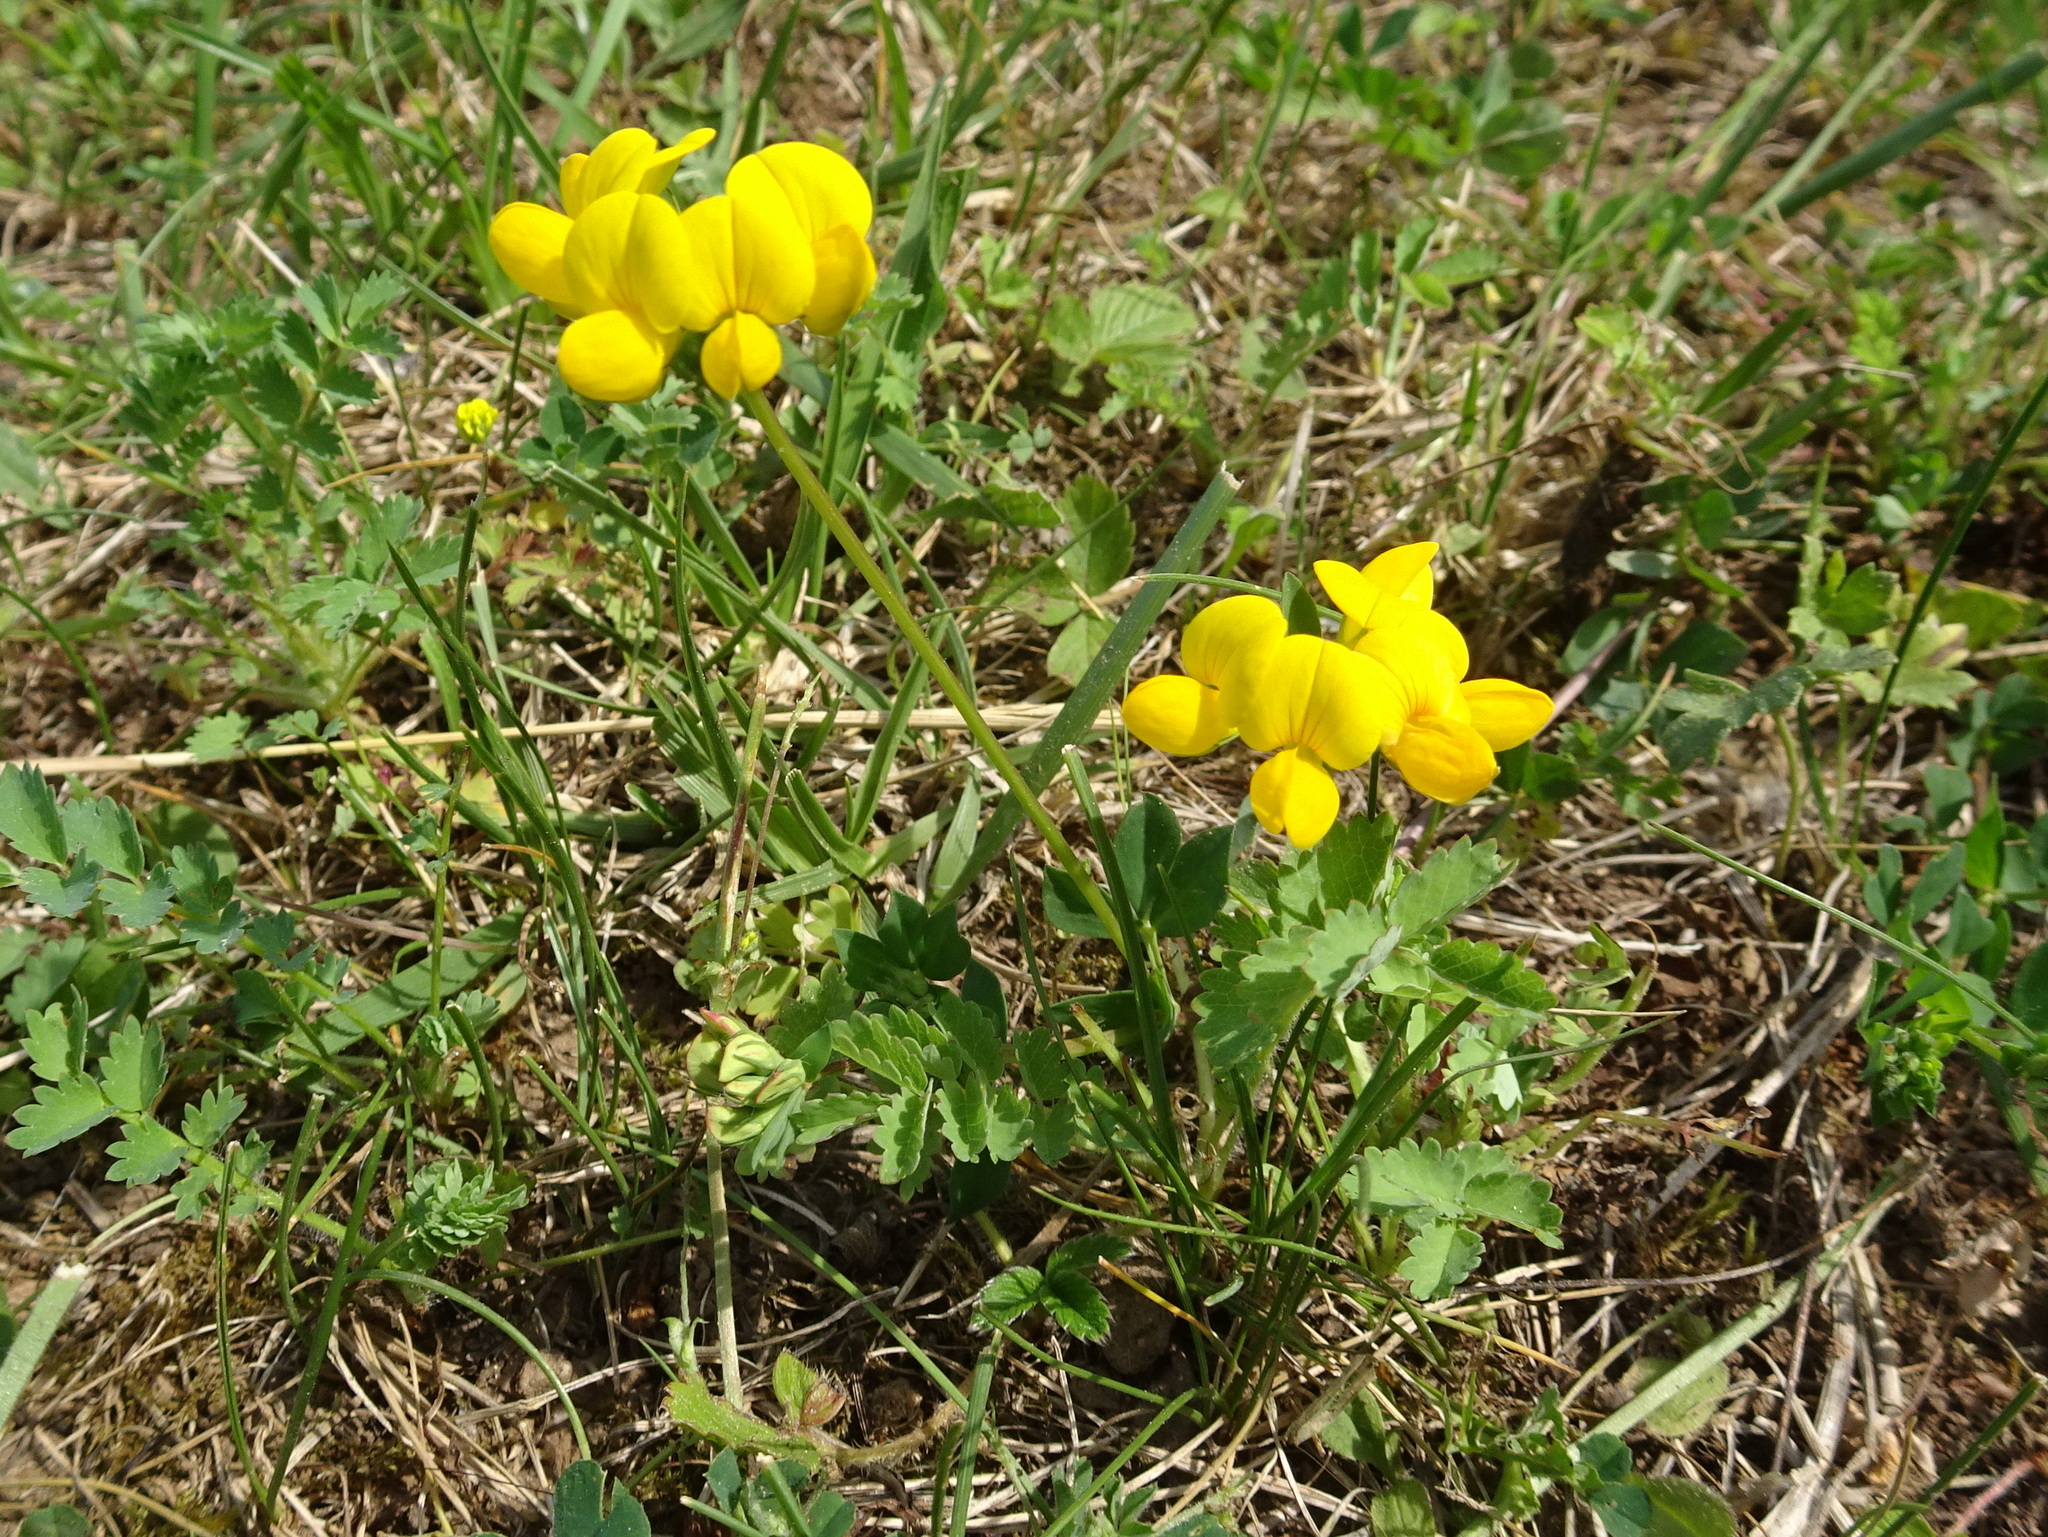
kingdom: Plantae
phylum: Tracheophyta
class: Magnoliopsida
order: Fabales
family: Fabaceae
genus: Lotus
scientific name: Lotus corniculatus
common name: Common bird's-foot-trefoil
